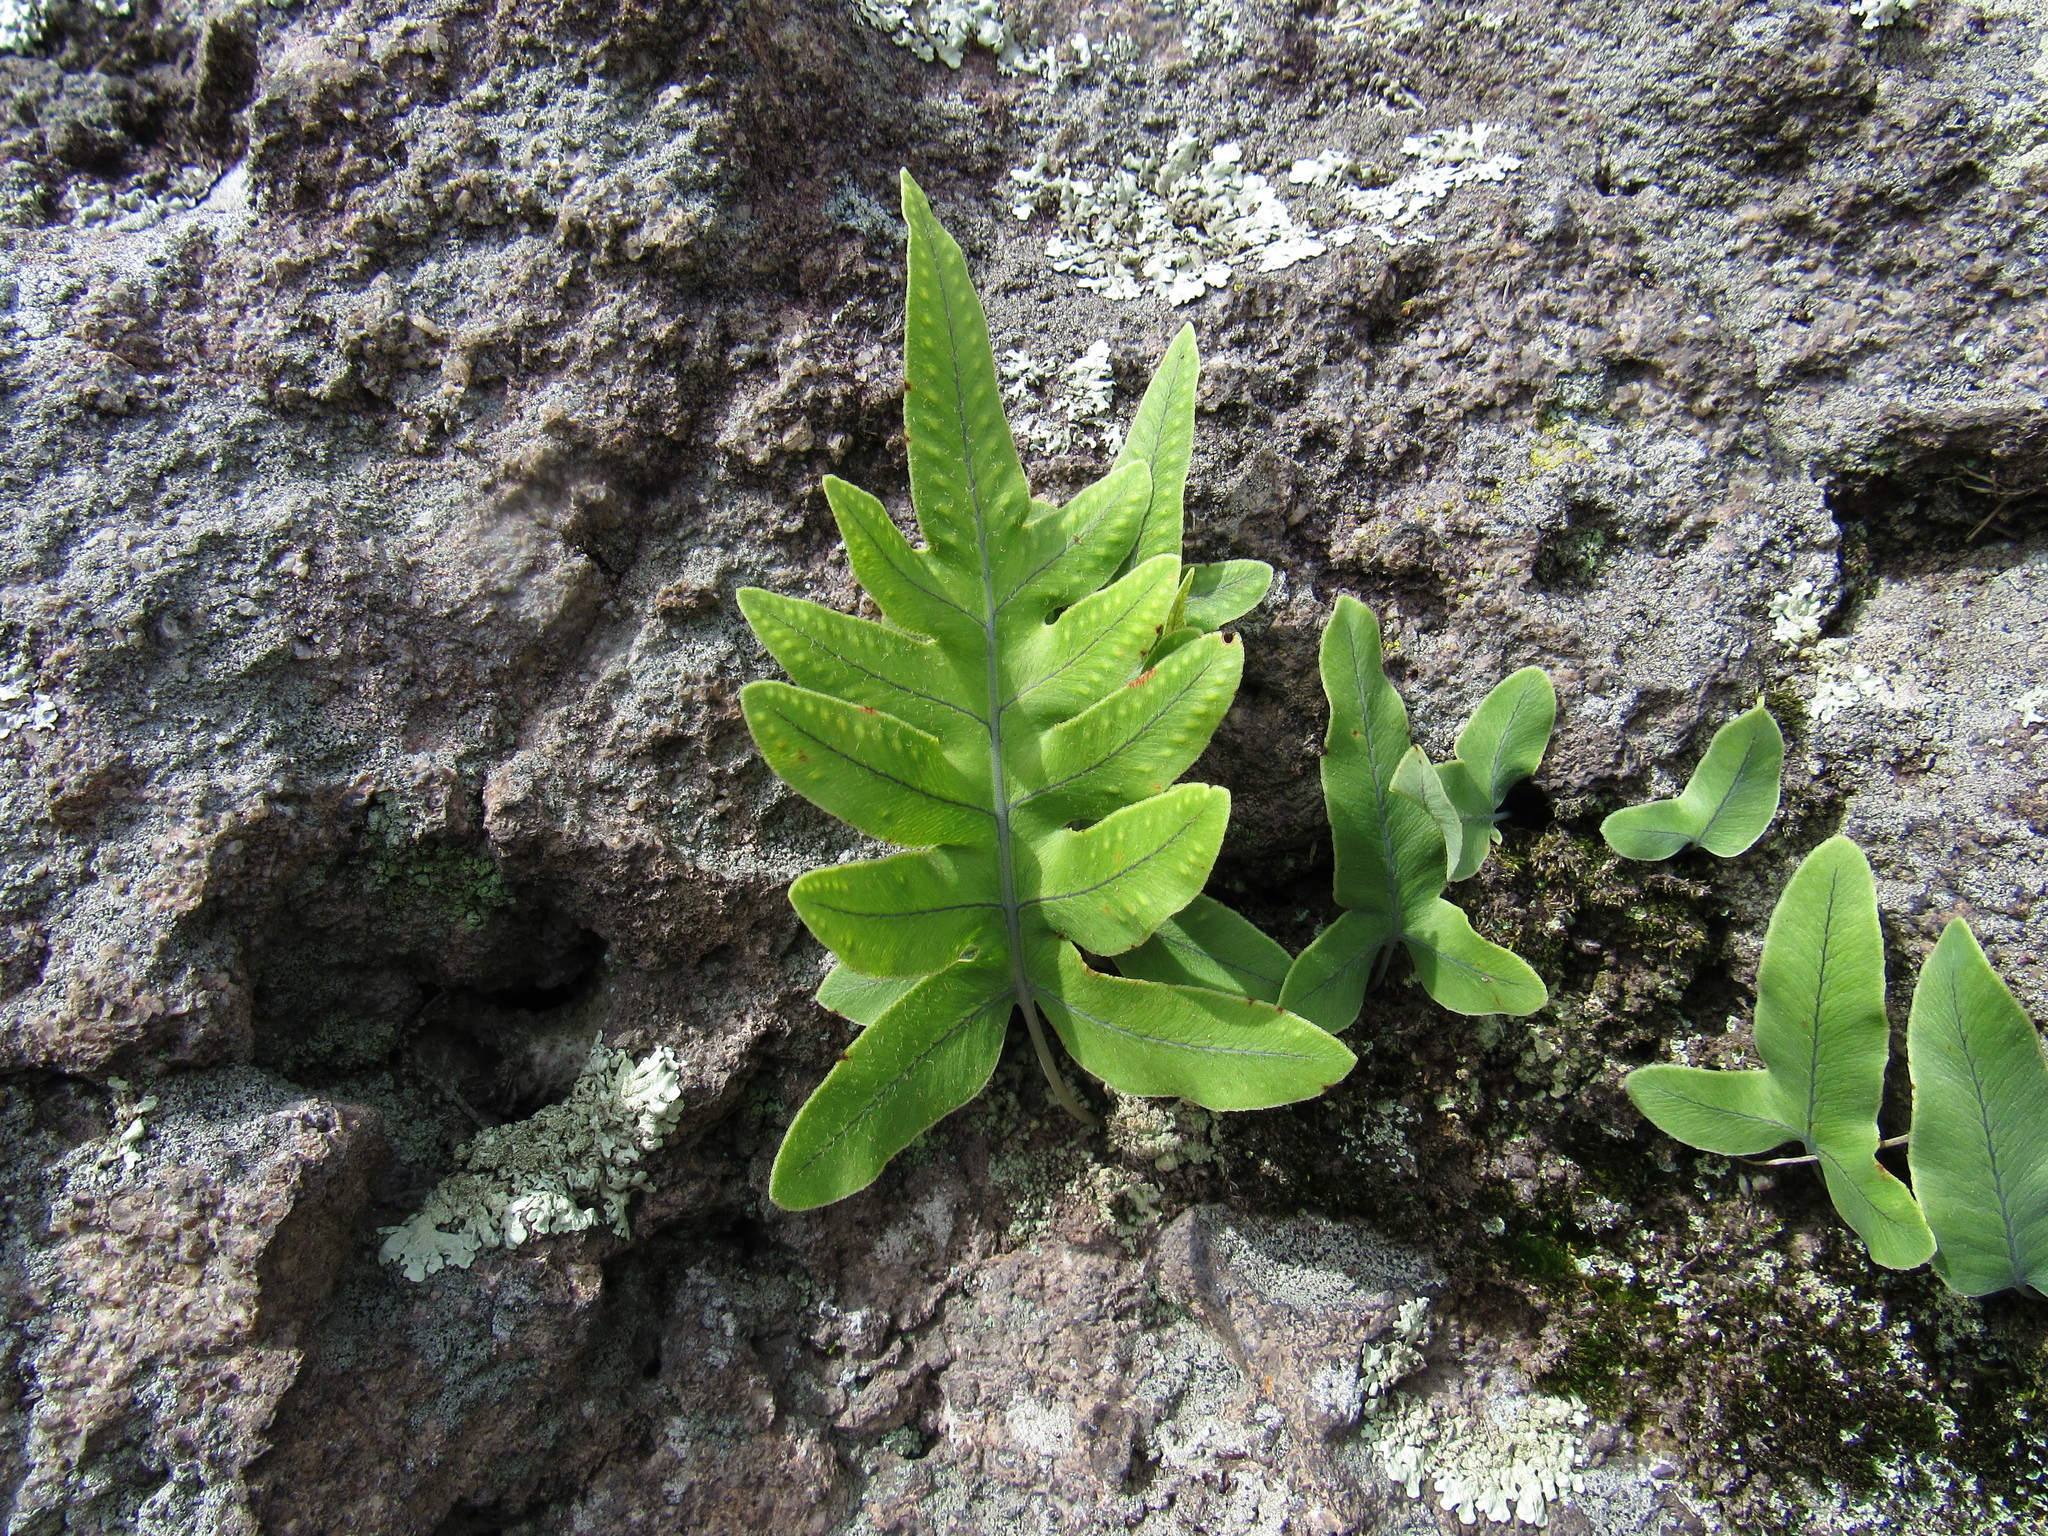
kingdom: Plantae
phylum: Tracheophyta
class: Polypodiopsida
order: Polypodiales
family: Polypodiaceae
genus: Phlebodium
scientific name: Phlebodium pseudoaureum
